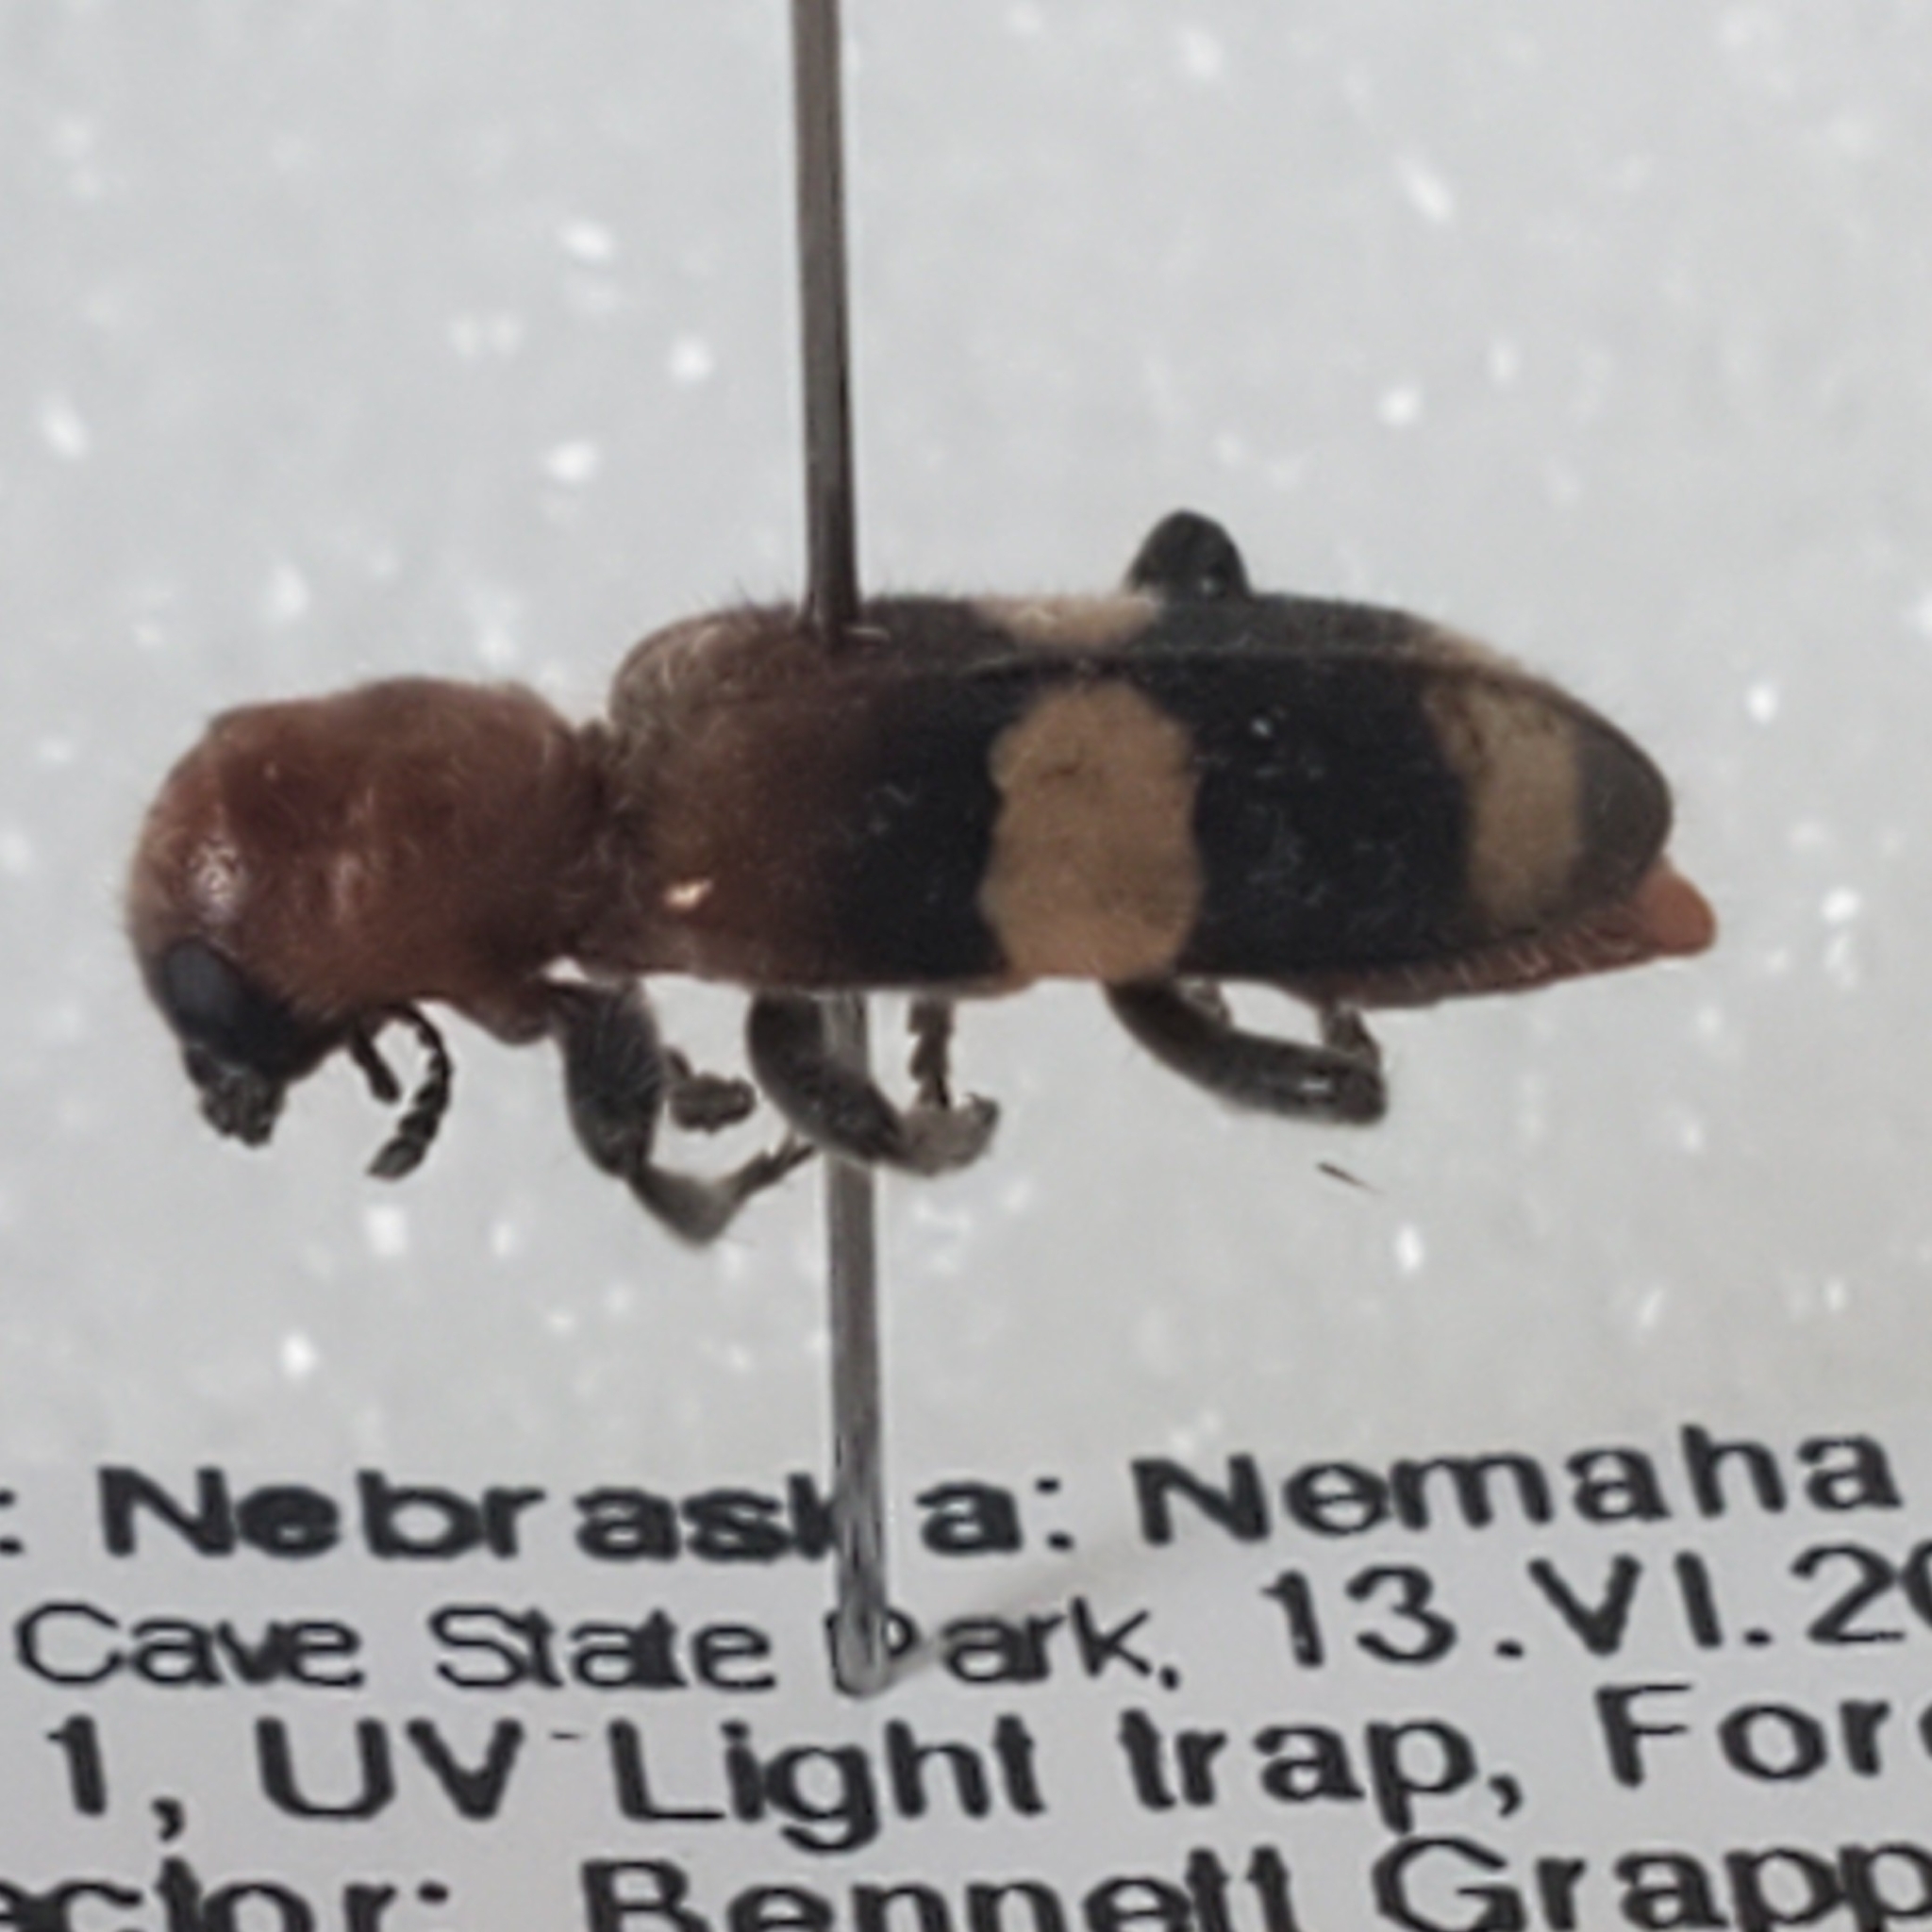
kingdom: Animalia
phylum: Arthropoda
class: Insecta
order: Coleoptera
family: Cleridae
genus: Enoclerus
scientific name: Enoclerus quadrisignatus
